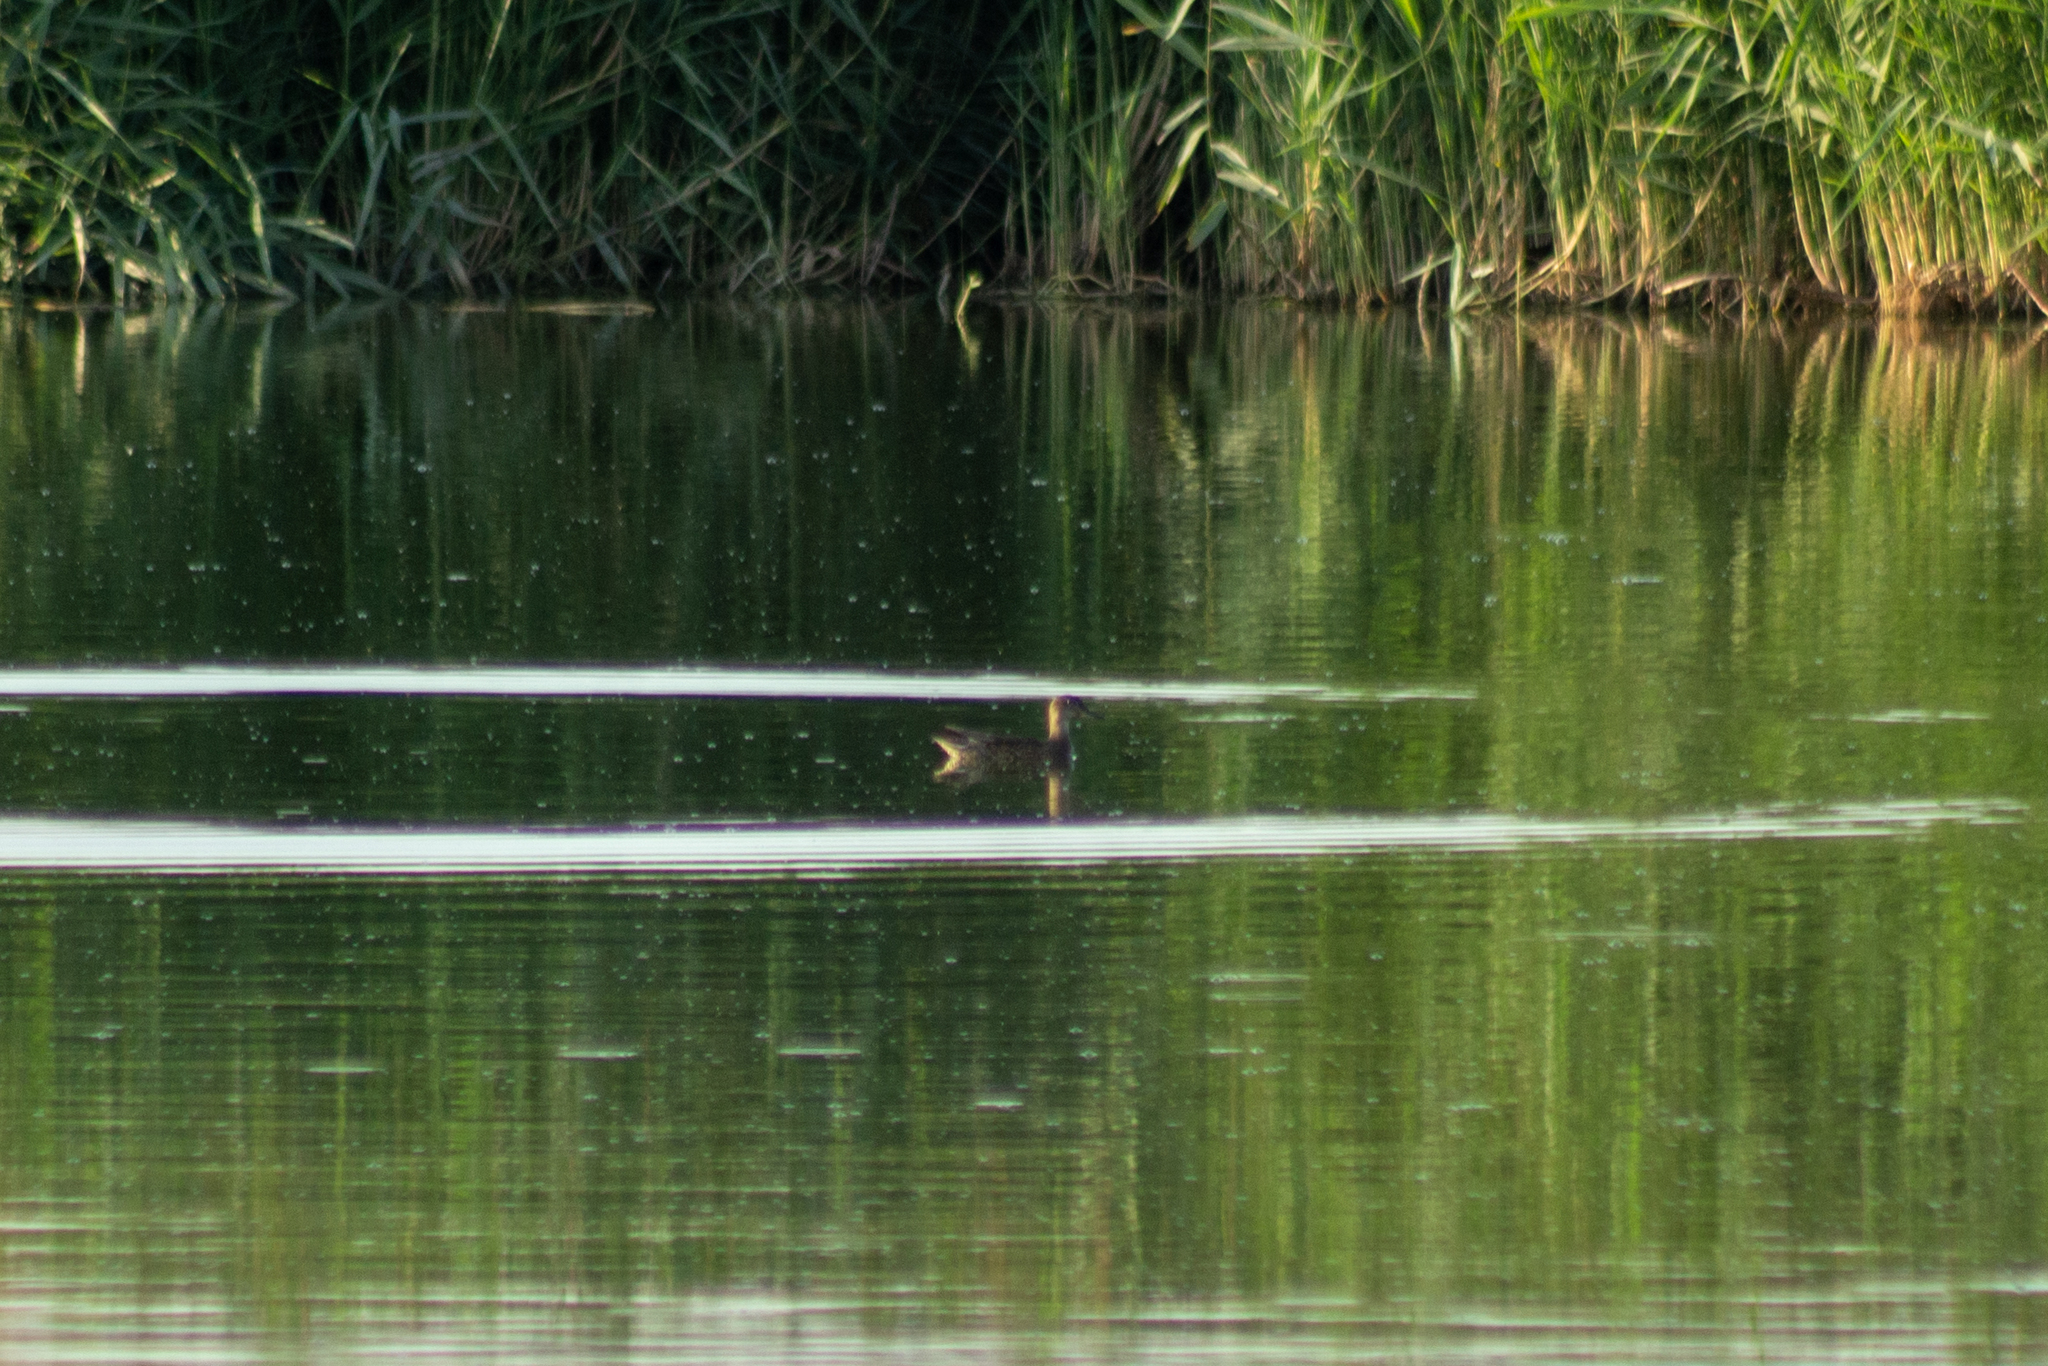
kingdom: Animalia
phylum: Chordata
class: Aves
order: Anseriformes
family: Anatidae
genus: Anas
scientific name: Anas crecca
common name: Eurasian teal
